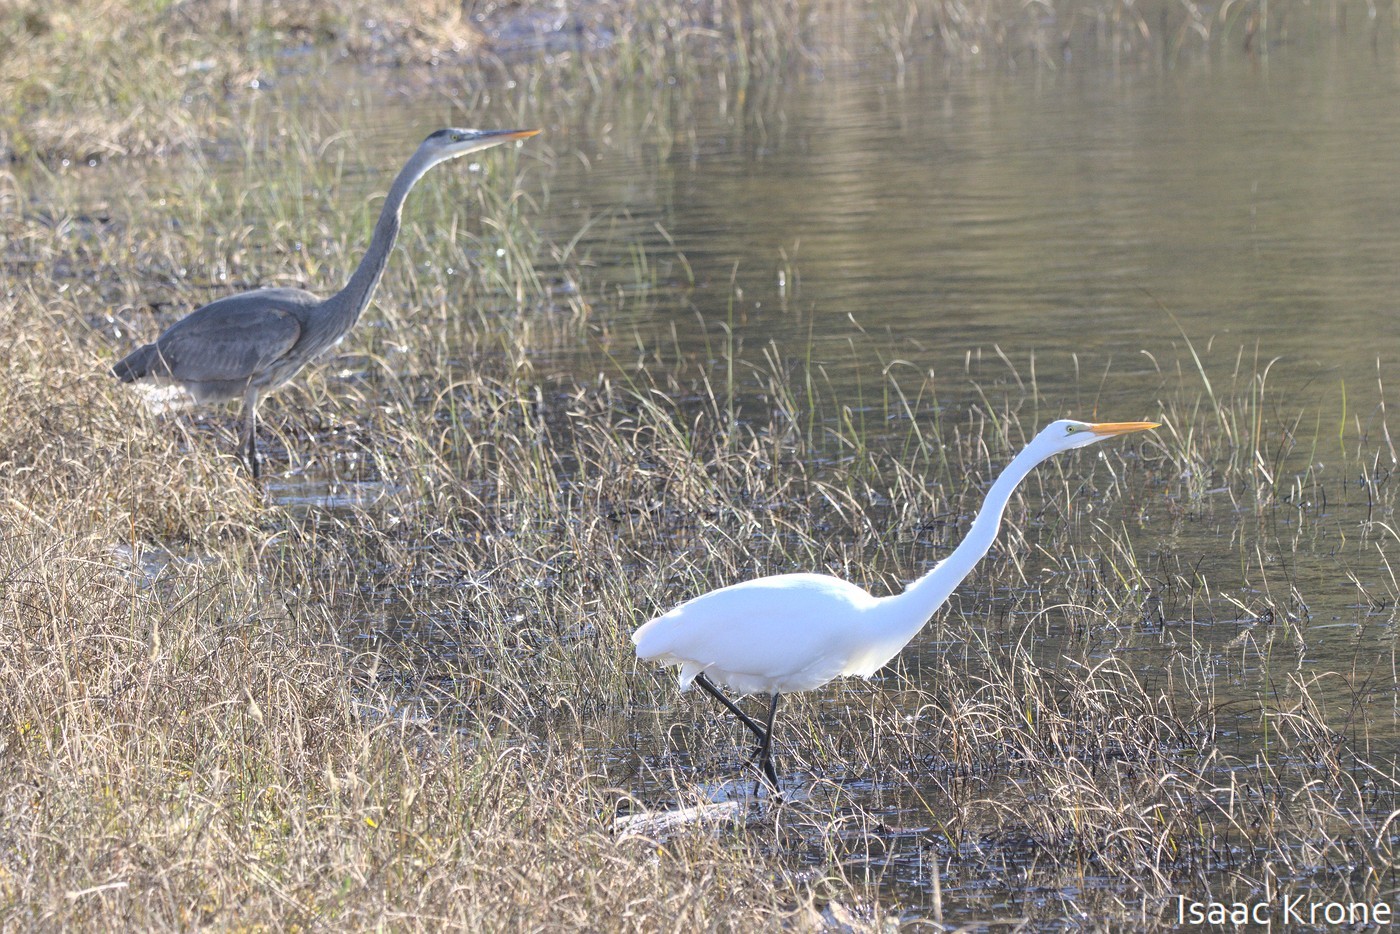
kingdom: Animalia
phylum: Chordata
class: Aves
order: Pelecaniformes
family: Ardeidae
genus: Ardea
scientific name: Ardea alba
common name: Great egret
